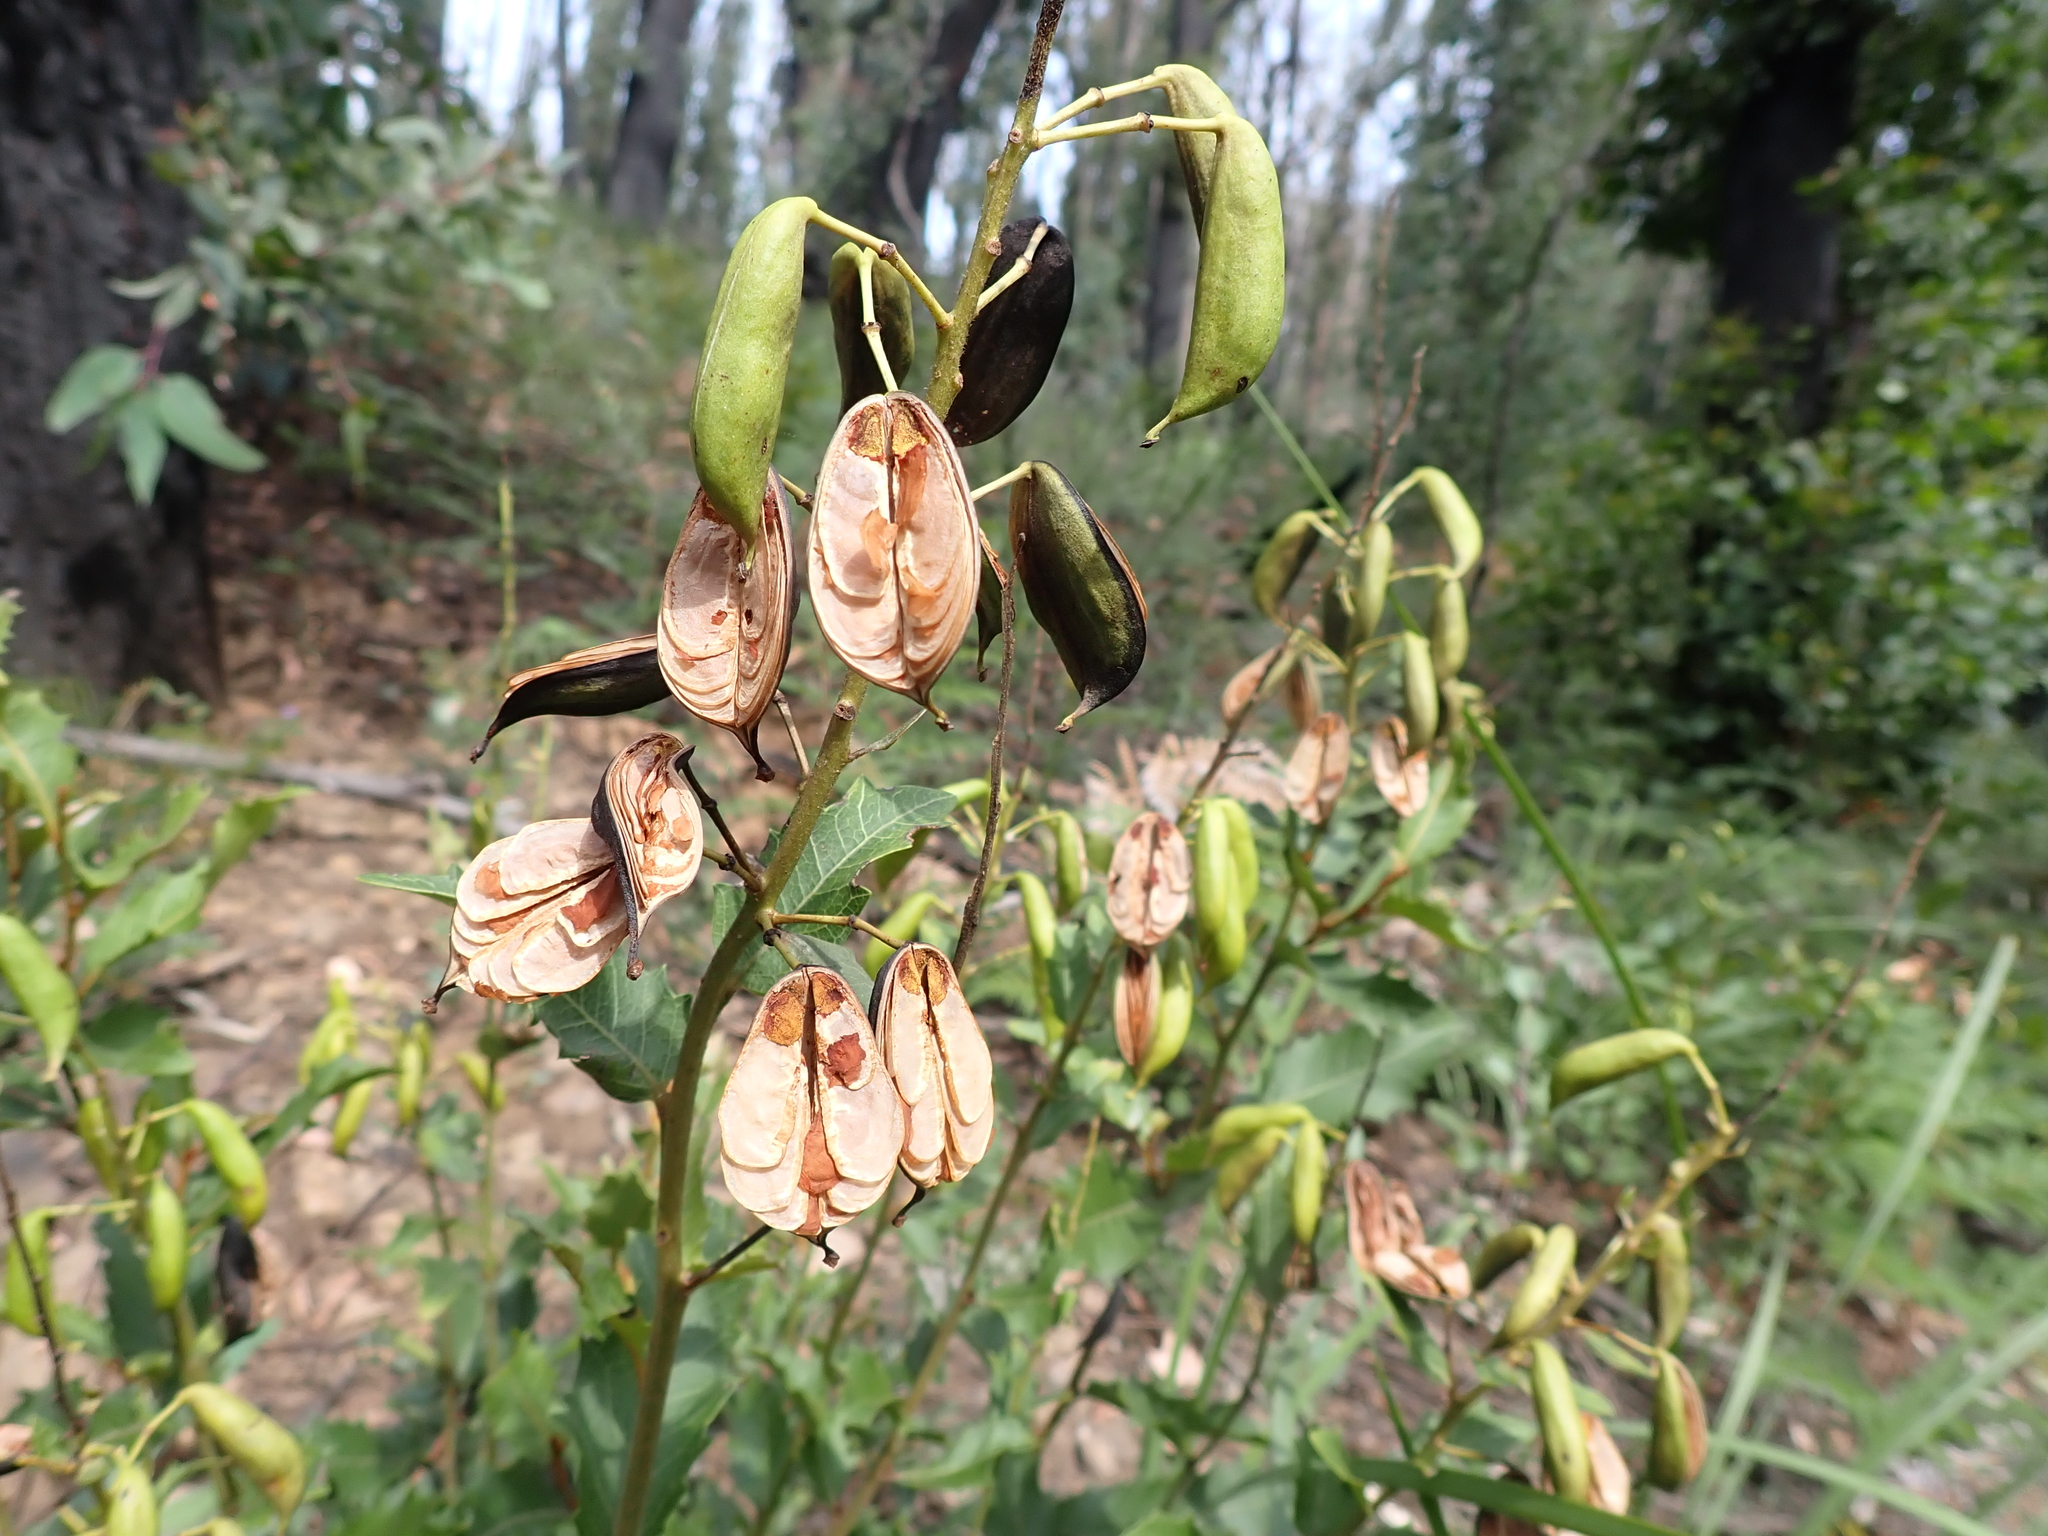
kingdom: Plantae
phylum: Tracheophyta
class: Magnoliopsida
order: Proteales
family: Proteaceae
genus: Lomatia
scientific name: Lomatia ilicifolia
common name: Native-holly
